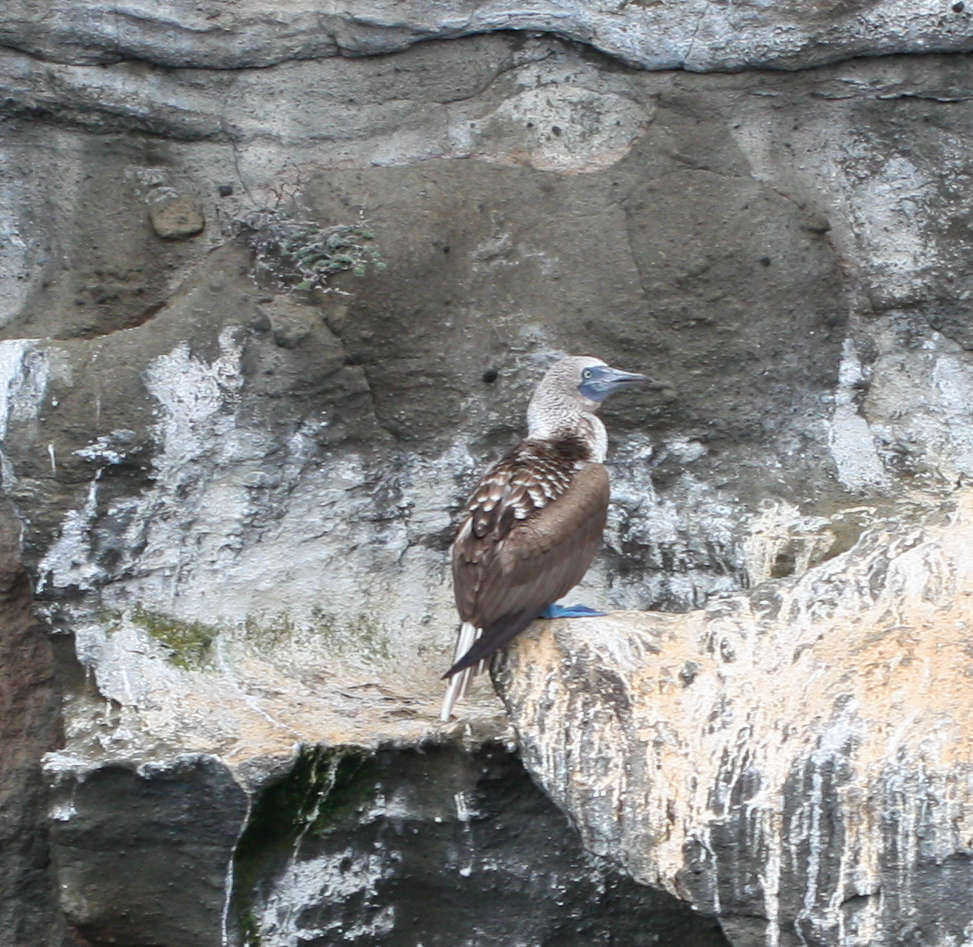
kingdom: Animalia
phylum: Chordata
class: Aves
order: Suliformes
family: Sulidae
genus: Sula
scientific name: Sula nebouxii
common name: Blue-footed booby
